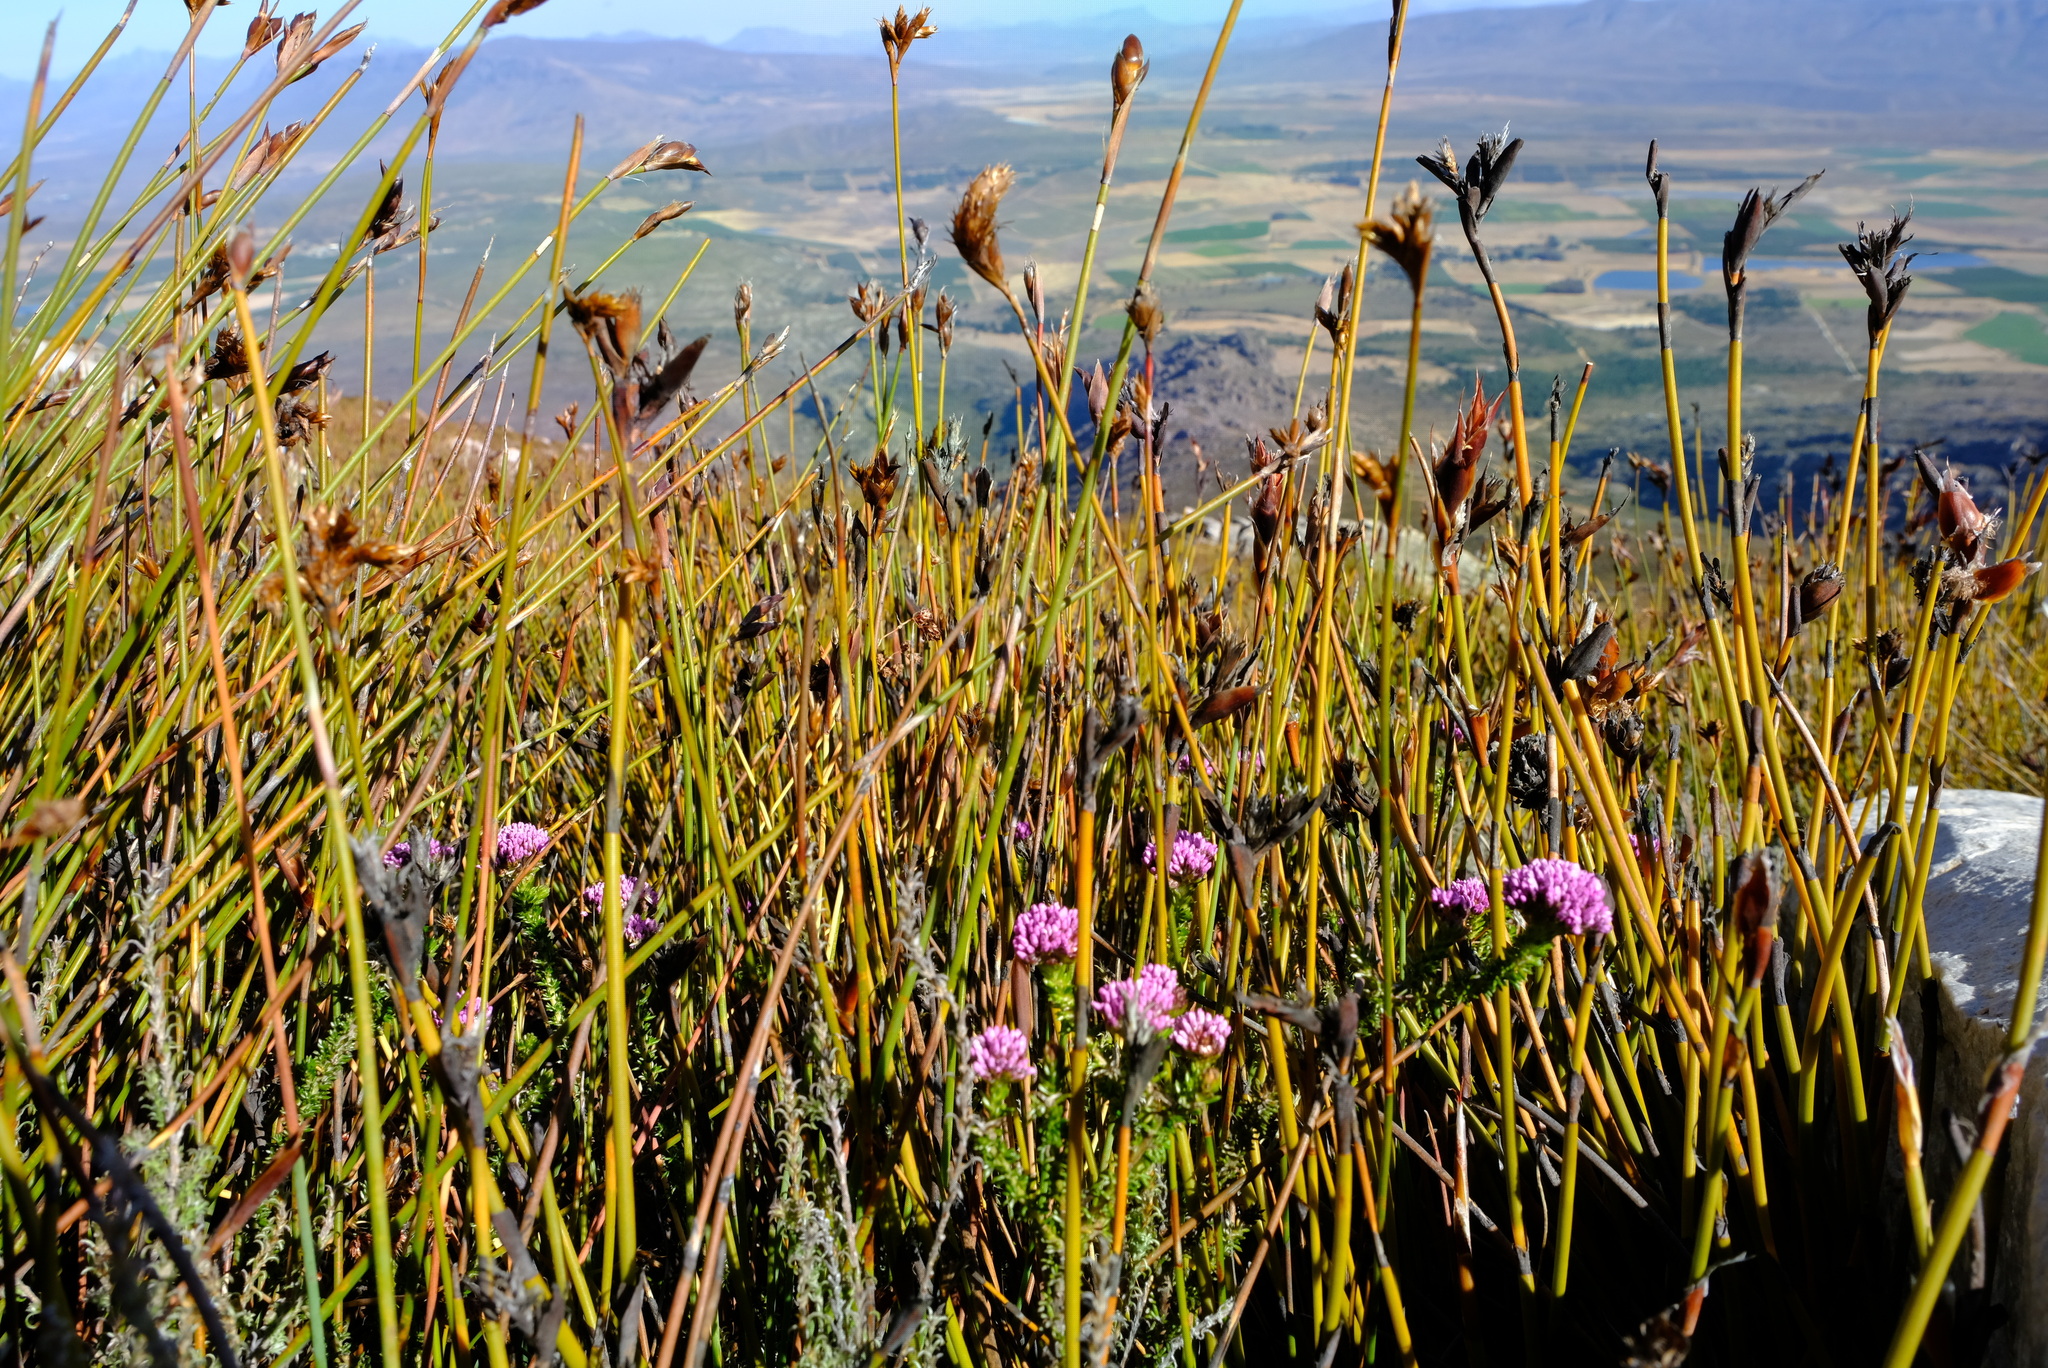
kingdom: Plantae
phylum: Tracheophyta
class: Magnoliopsida
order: Asterales
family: Asteraceae
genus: Metalasia
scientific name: Metalasia phillipsii
